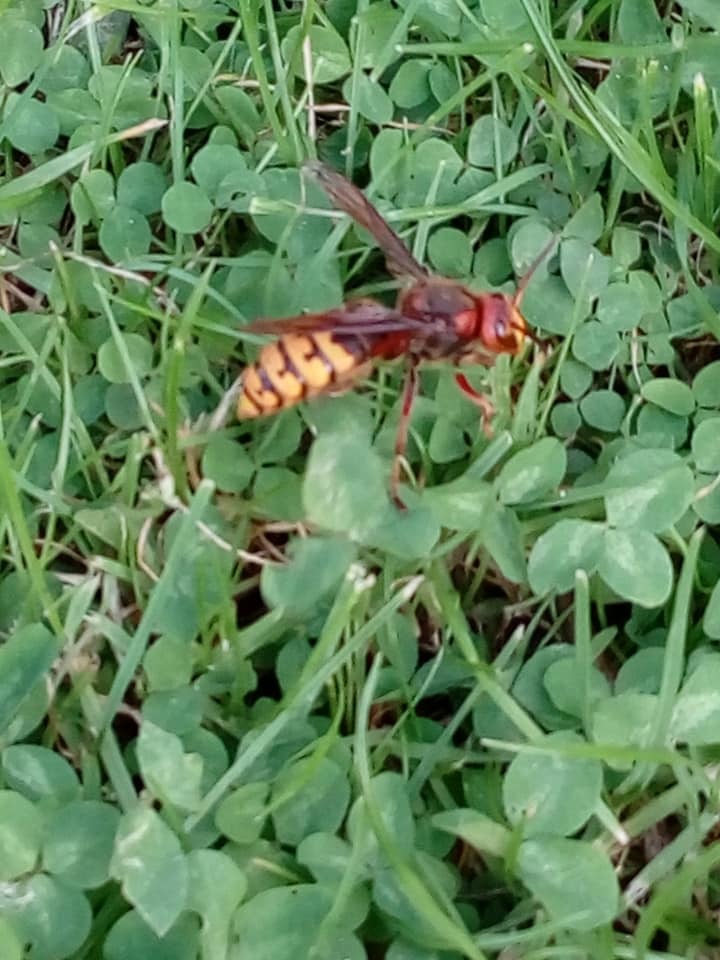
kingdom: Animalia
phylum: Arthropoda
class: Insecta
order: Hymenoptera
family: Vespidae
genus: Vespa
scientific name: Vespa crabro
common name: Hornet
